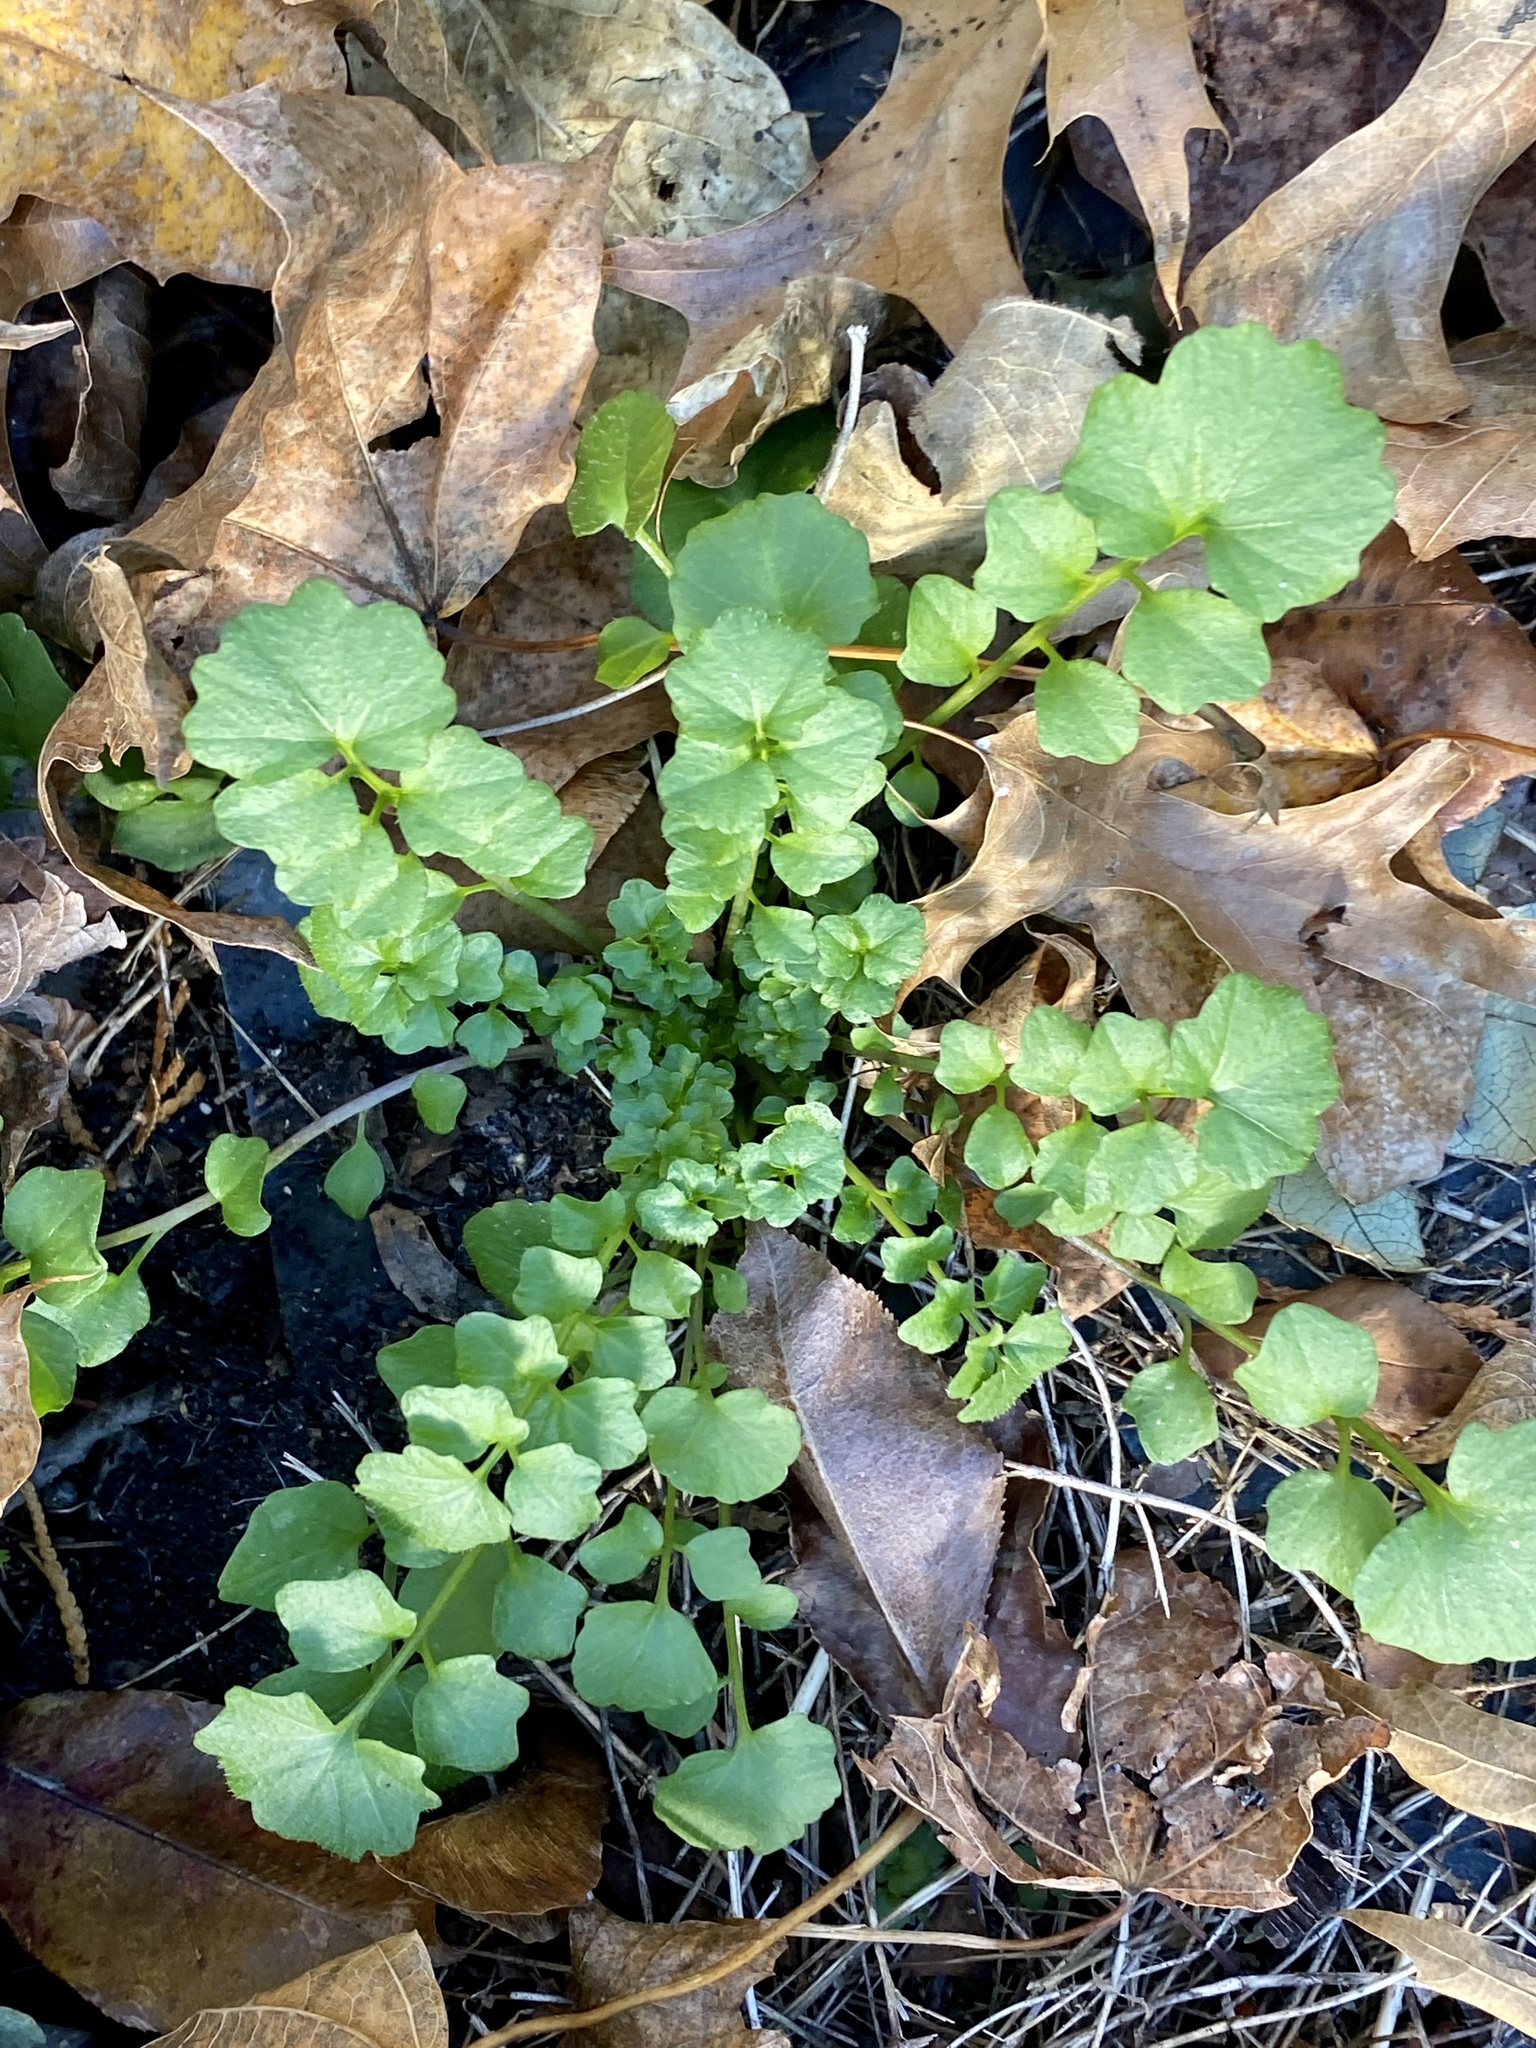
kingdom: Plantae
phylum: Tracheophyta
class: Magnoliopsida
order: Brassicales
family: Brassicaceae
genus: Cardamine
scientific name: Cardamine hirsuta
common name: Hairy bittercress
